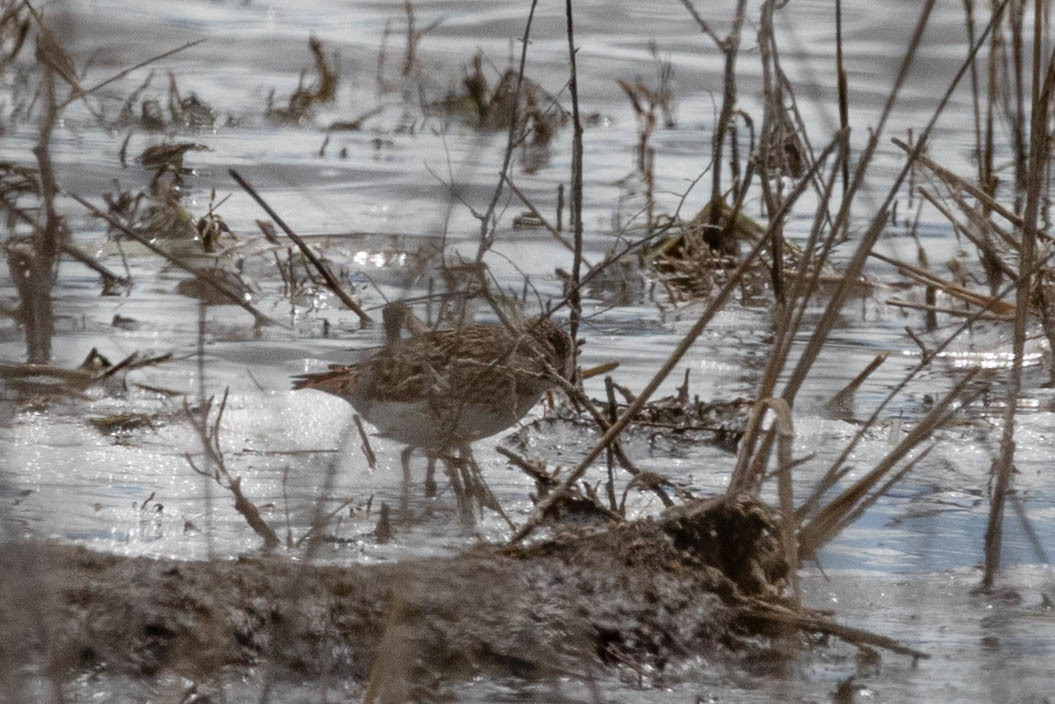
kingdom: Animalia
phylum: Chordata
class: Aves
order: Charadriiformes
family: Scolopacidae
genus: Calidris
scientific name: Calidris minutilla
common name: Least sandpiper
